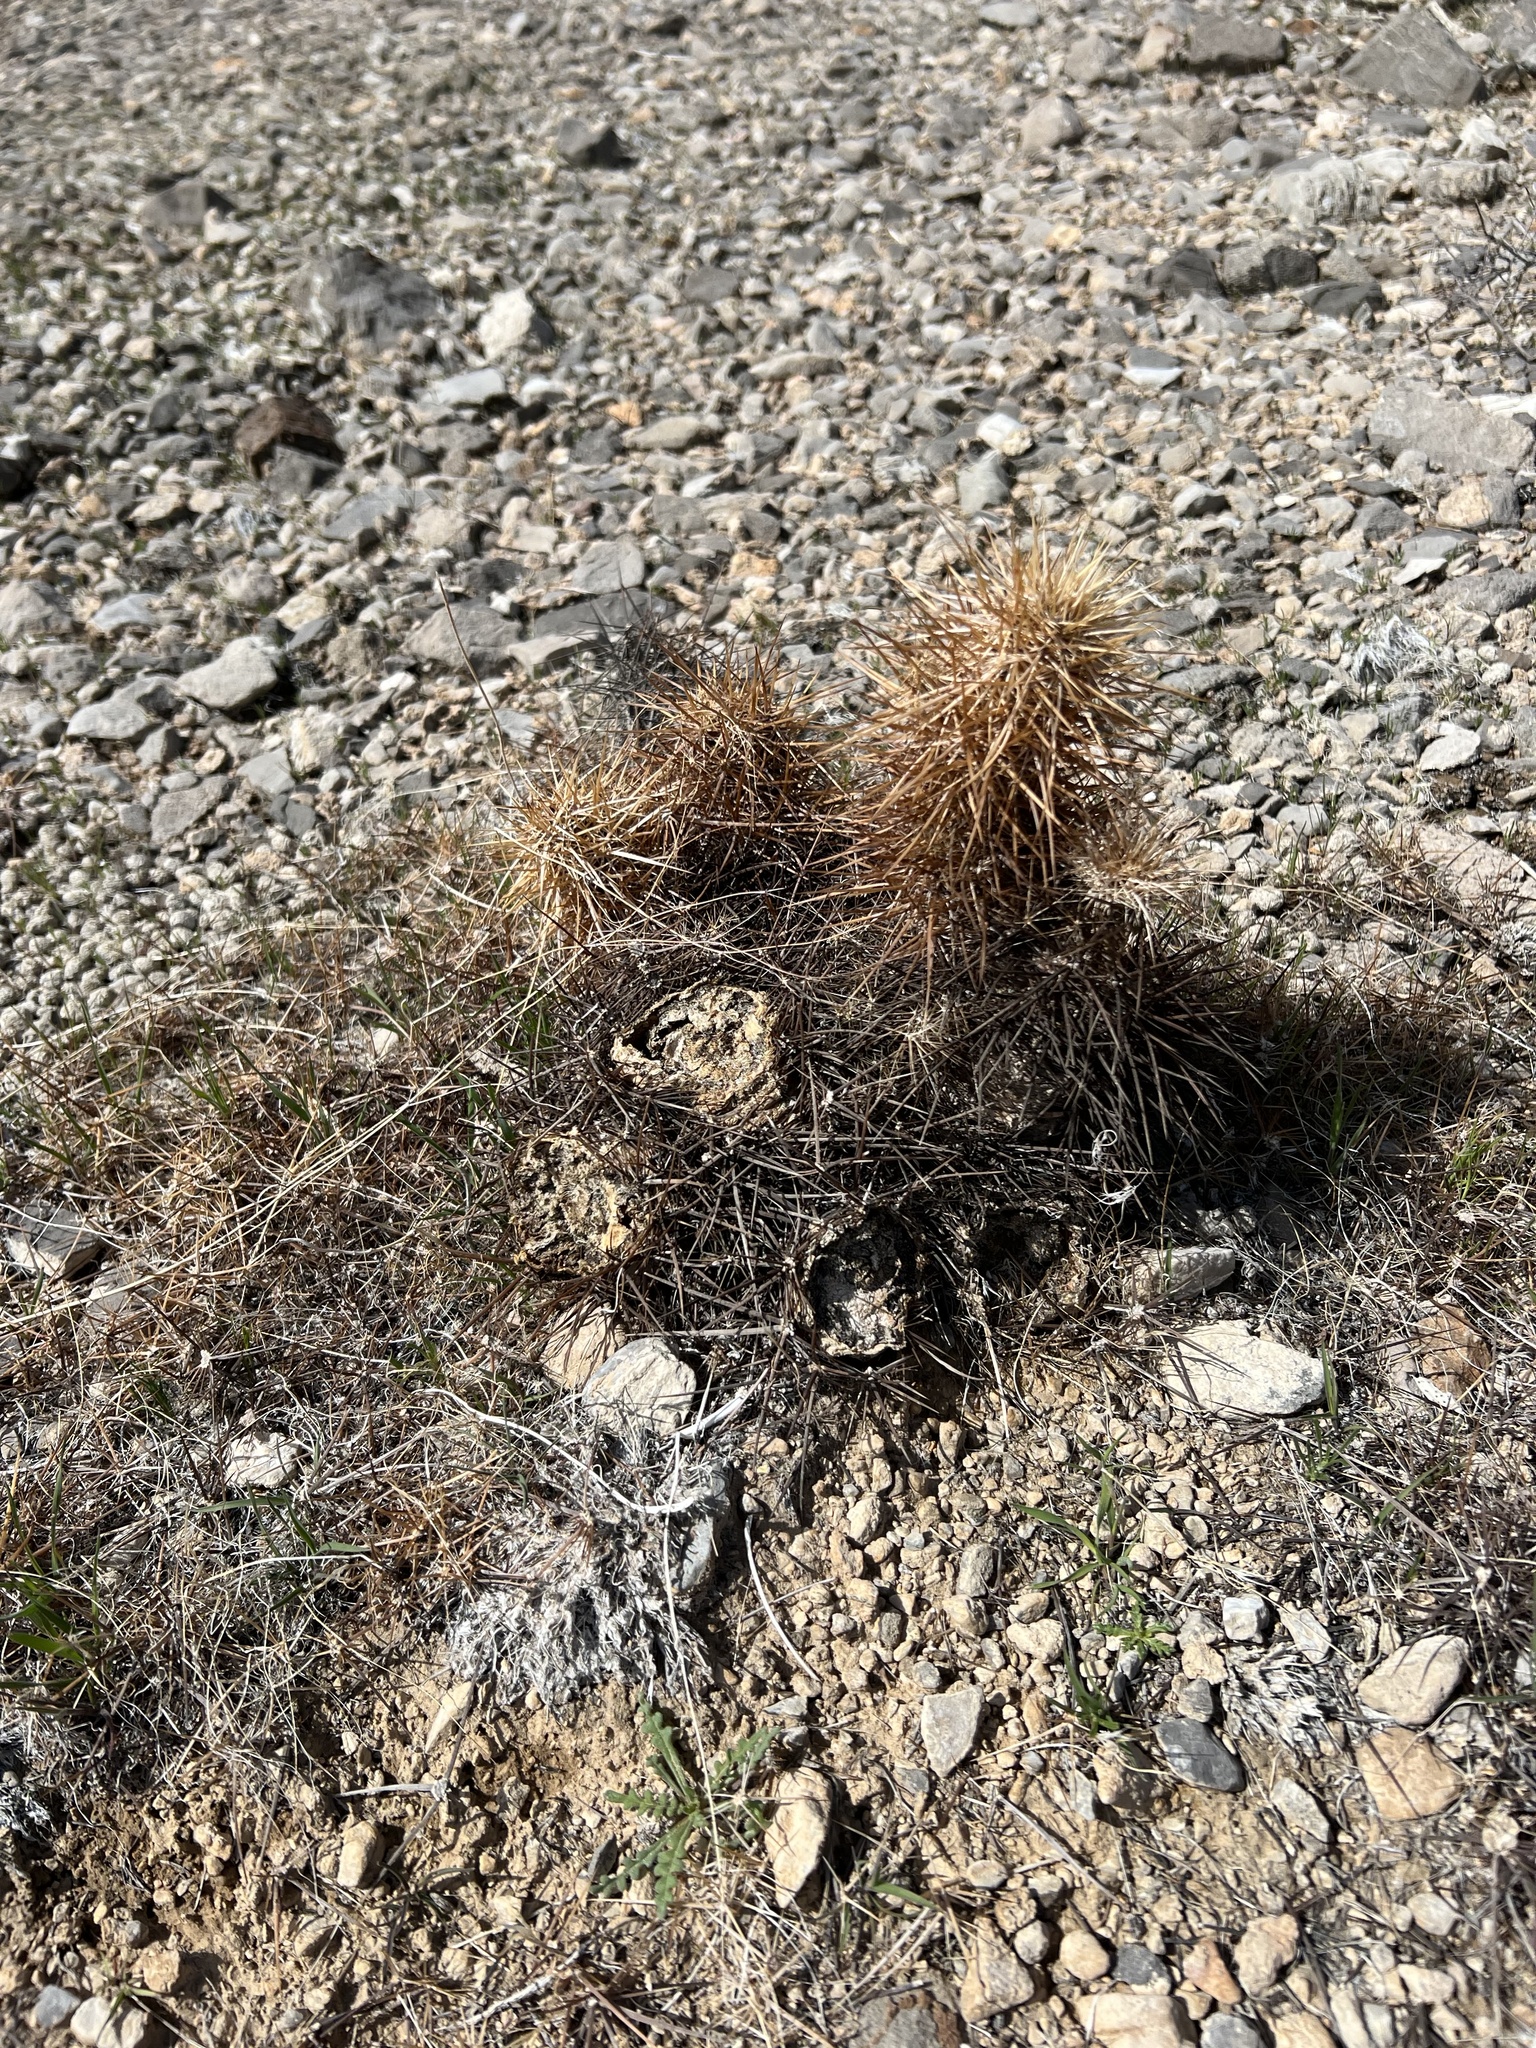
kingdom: Plantae
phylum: Tracheophyta
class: Magnoliopsida
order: Caryophyllales
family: Cactaceae
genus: Echinocereus
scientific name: Echinocereus engelmannii
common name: Engelmann's hedgehog cactus
